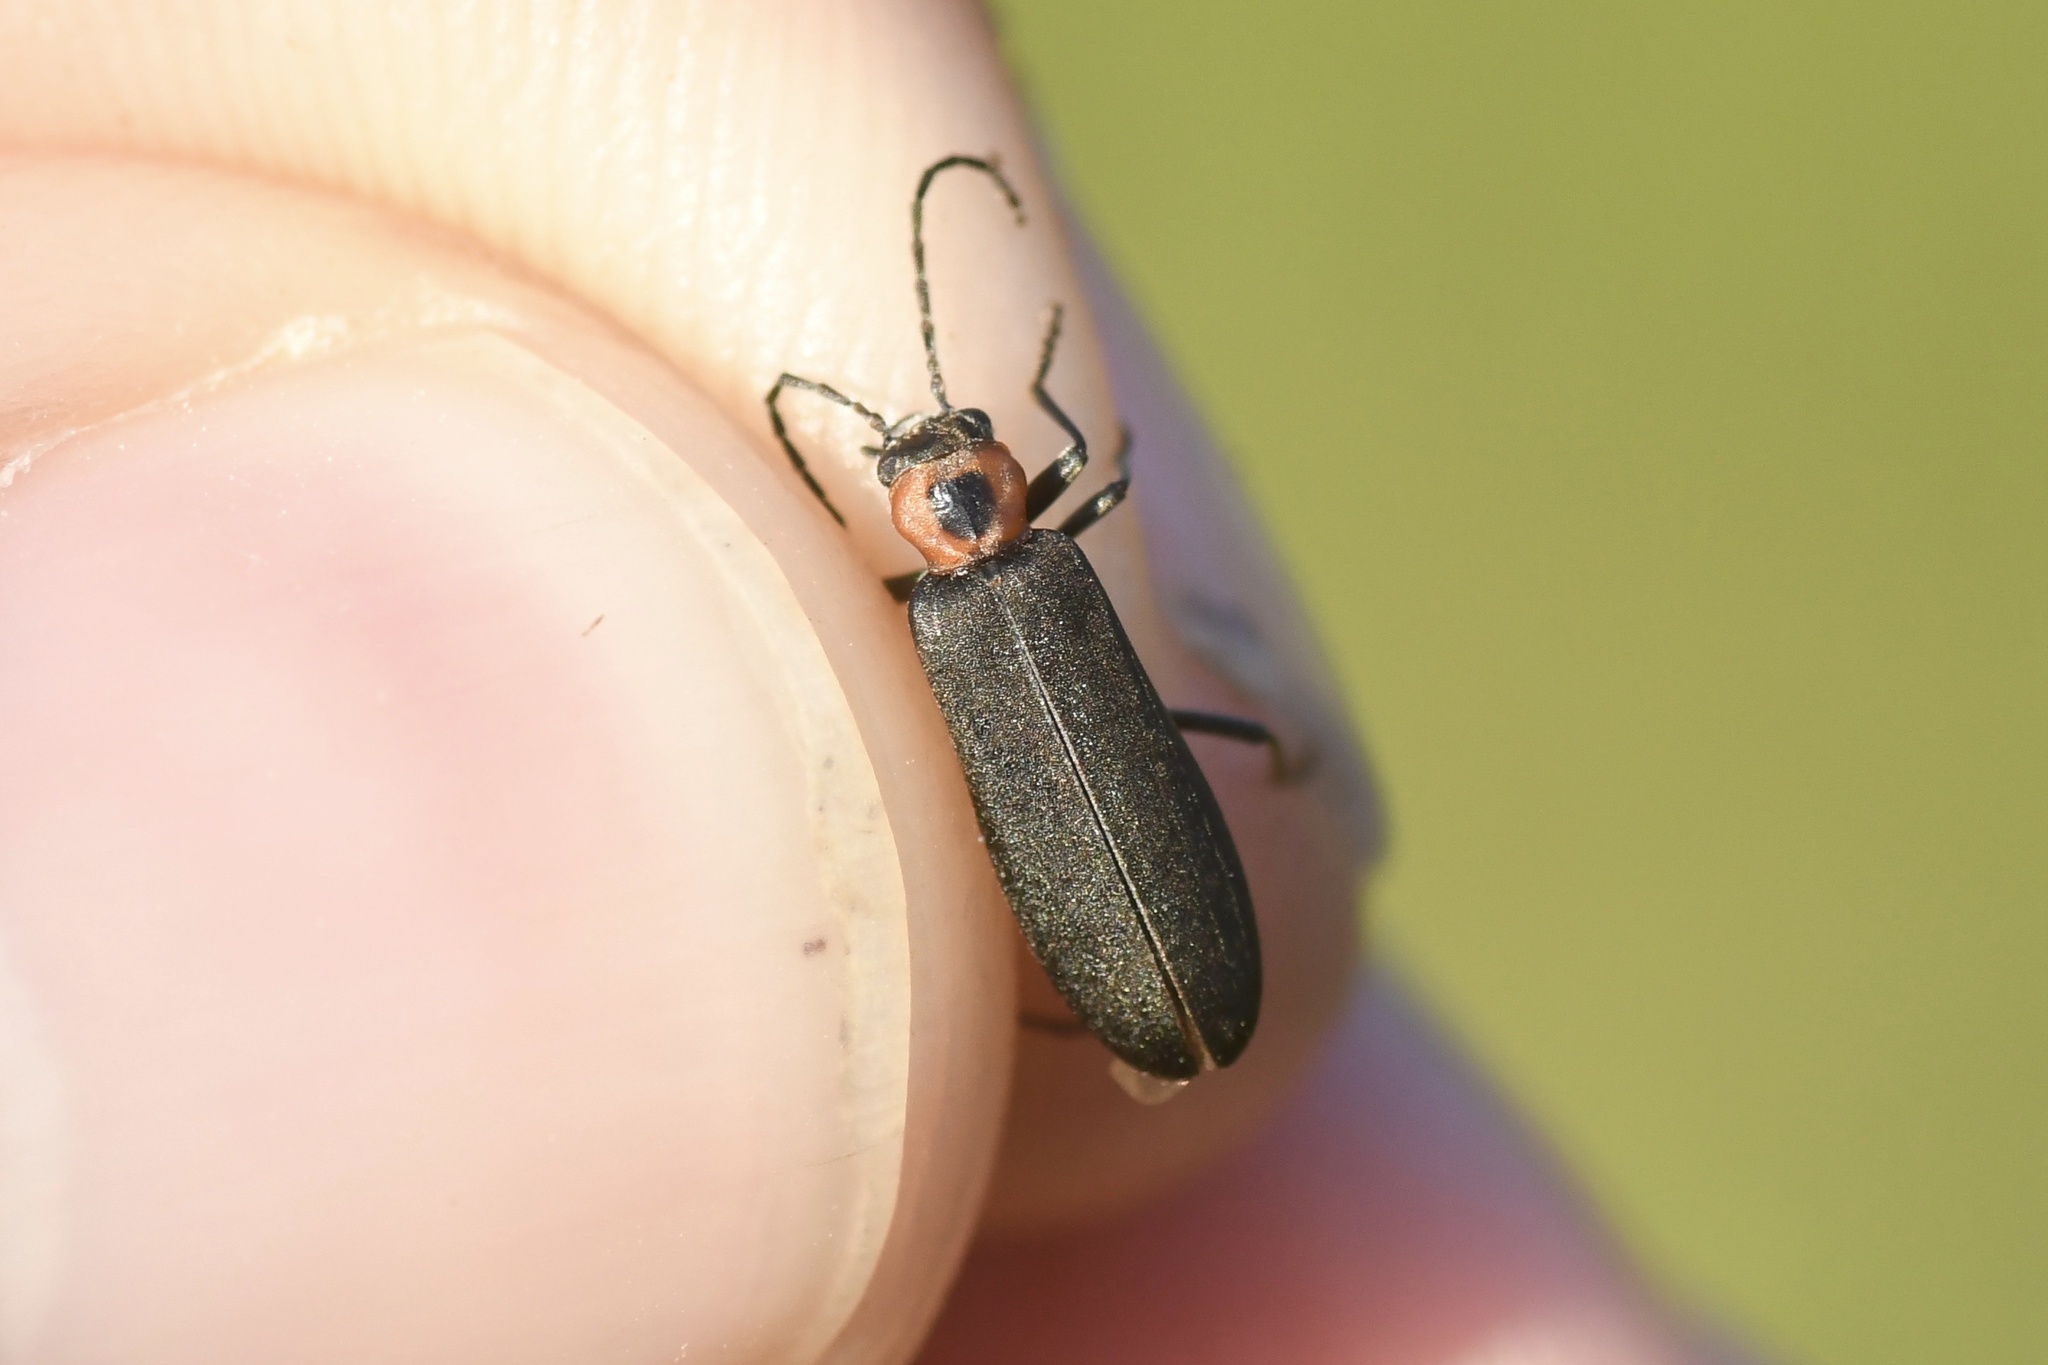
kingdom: Animalia
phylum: Arthropoda
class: Insecta
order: Coleoptera
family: Oedemeridae
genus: Ischnomera
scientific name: Ischnomera
